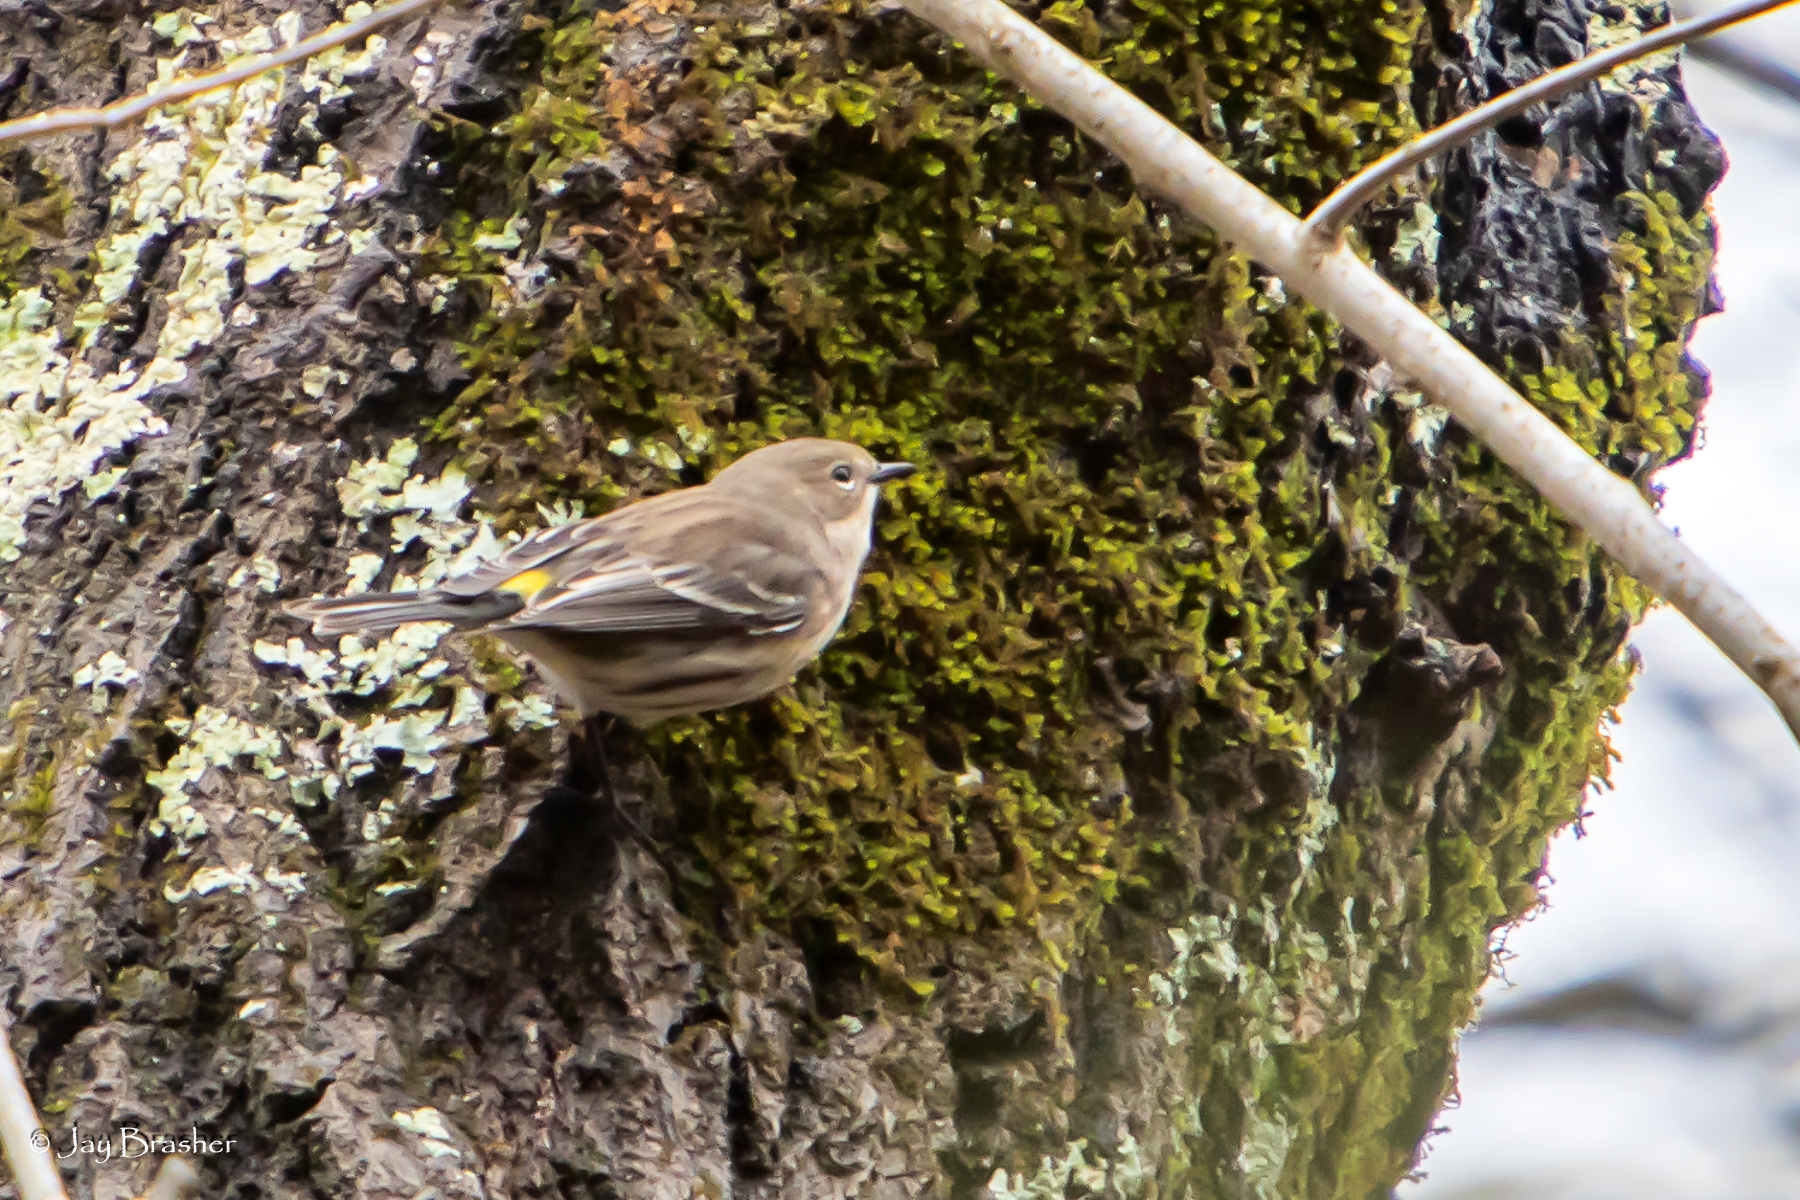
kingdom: Animalia
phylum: Chordata
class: Aves
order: Passeriformes
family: Parulidae
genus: Setophaga
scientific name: Setophaga coronata
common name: Myrtle warbler
